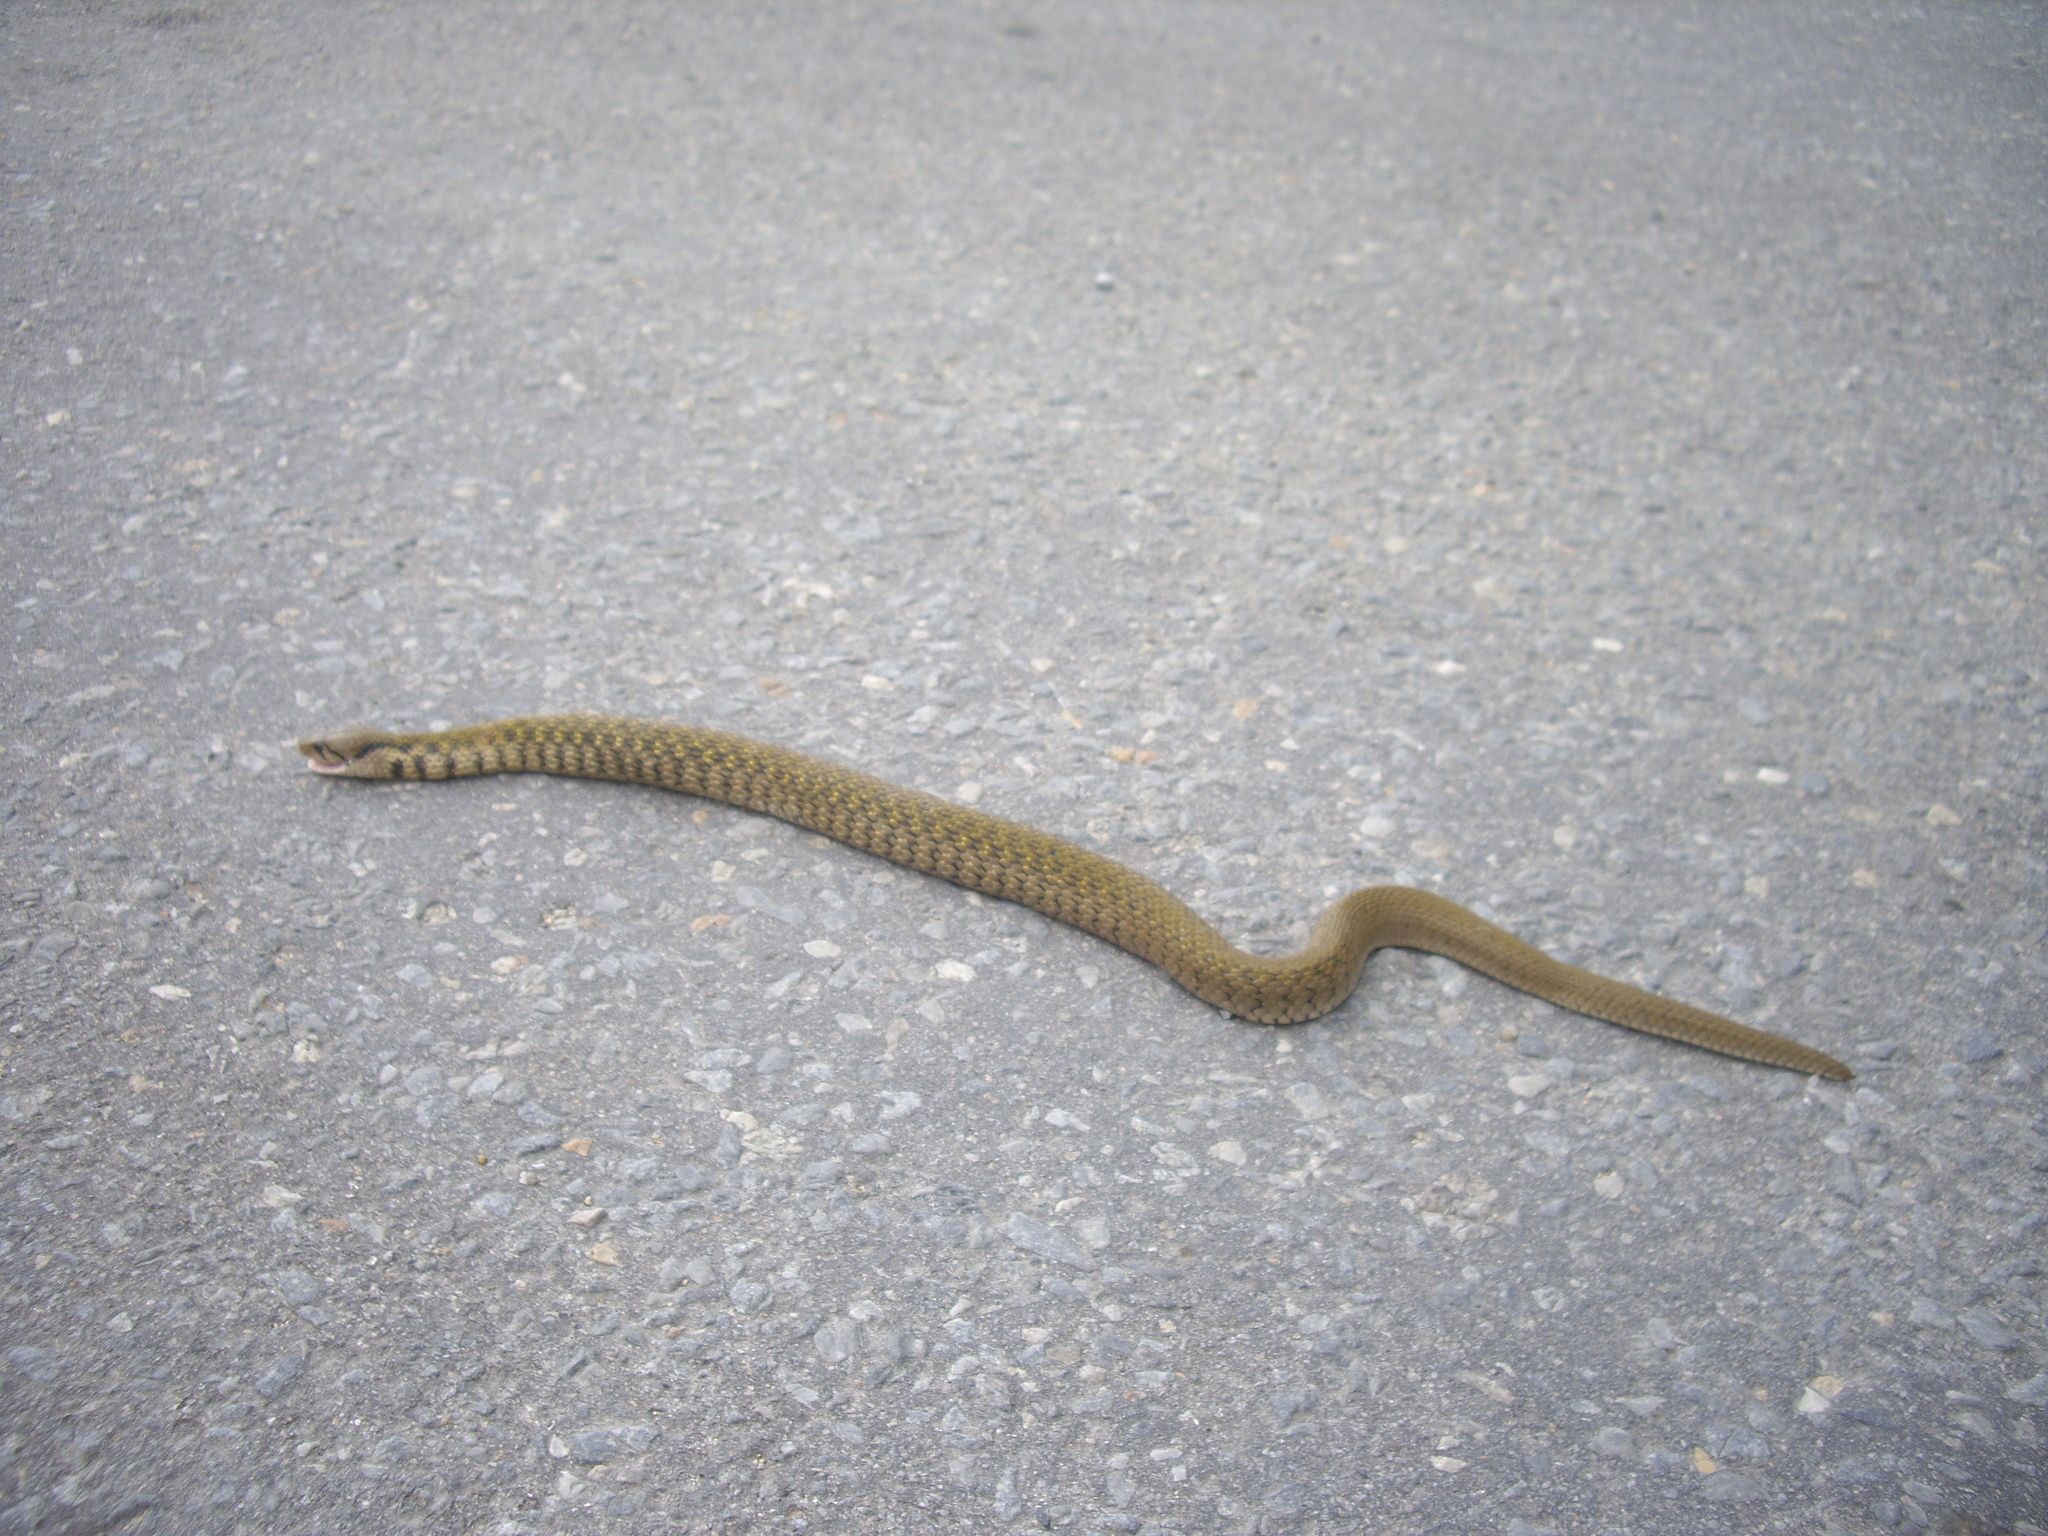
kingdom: Animalia
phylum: Chordata
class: Squamata
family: Colubridae
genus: Fowlea
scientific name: Fowlea flavipunctatus
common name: Yellow-spotted keelback
